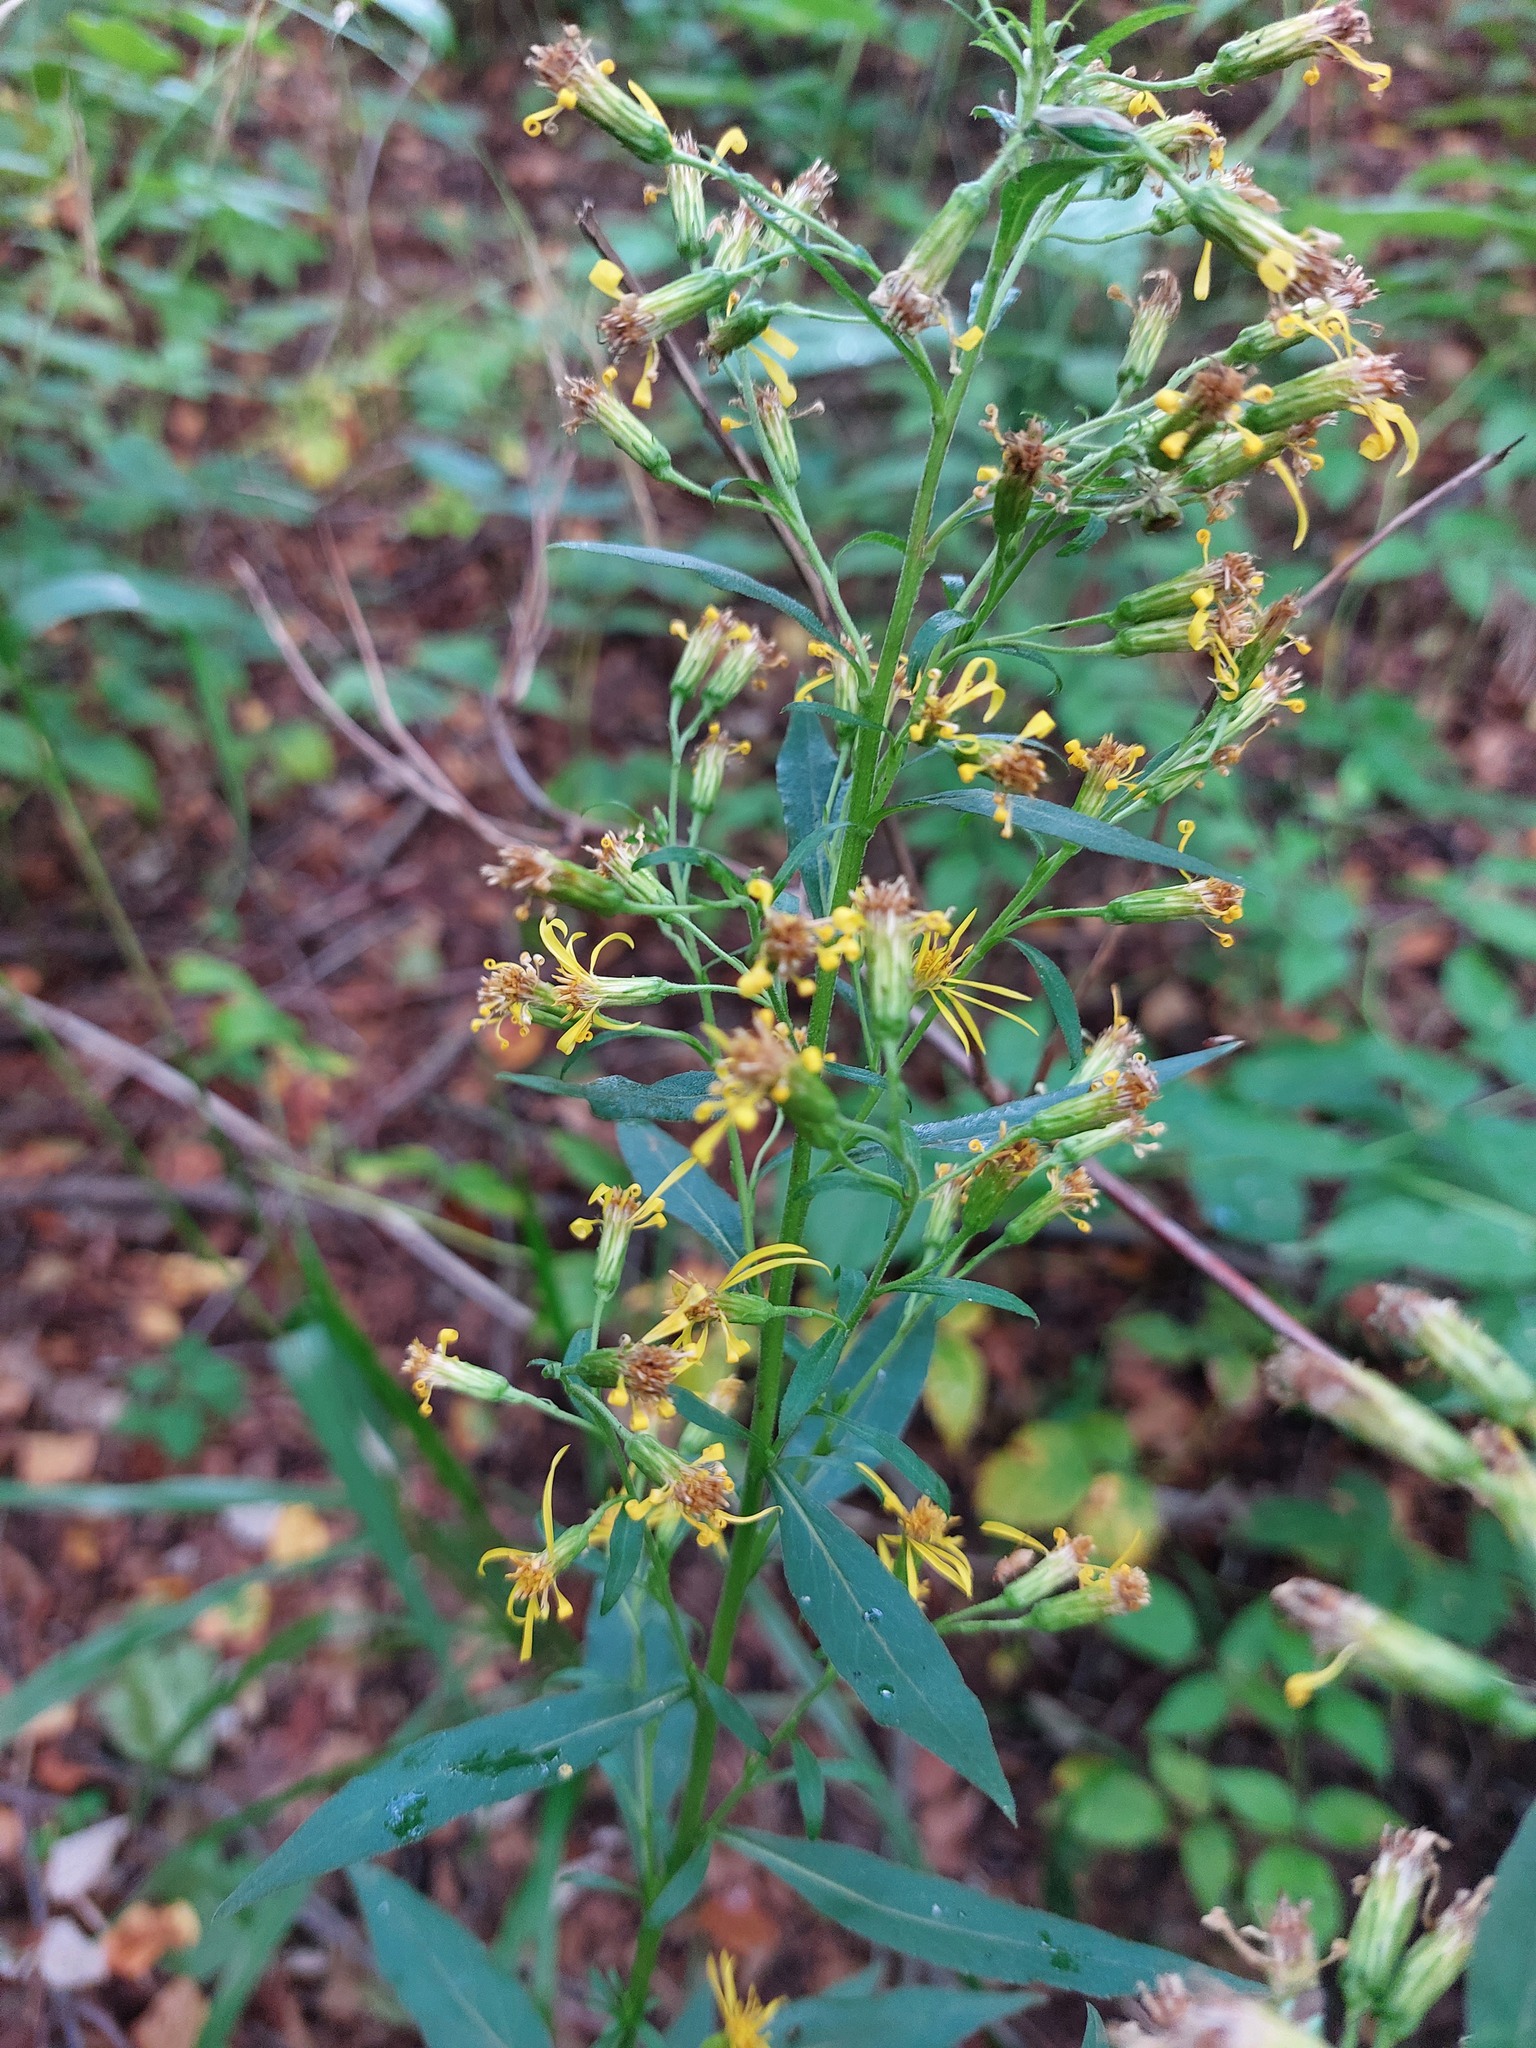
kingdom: Plantae
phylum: Tracheophyta
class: Magnoliopsida
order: Asterales
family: Asteraceae
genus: Solidago
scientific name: Solidago virgaurea
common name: Goldenrod
